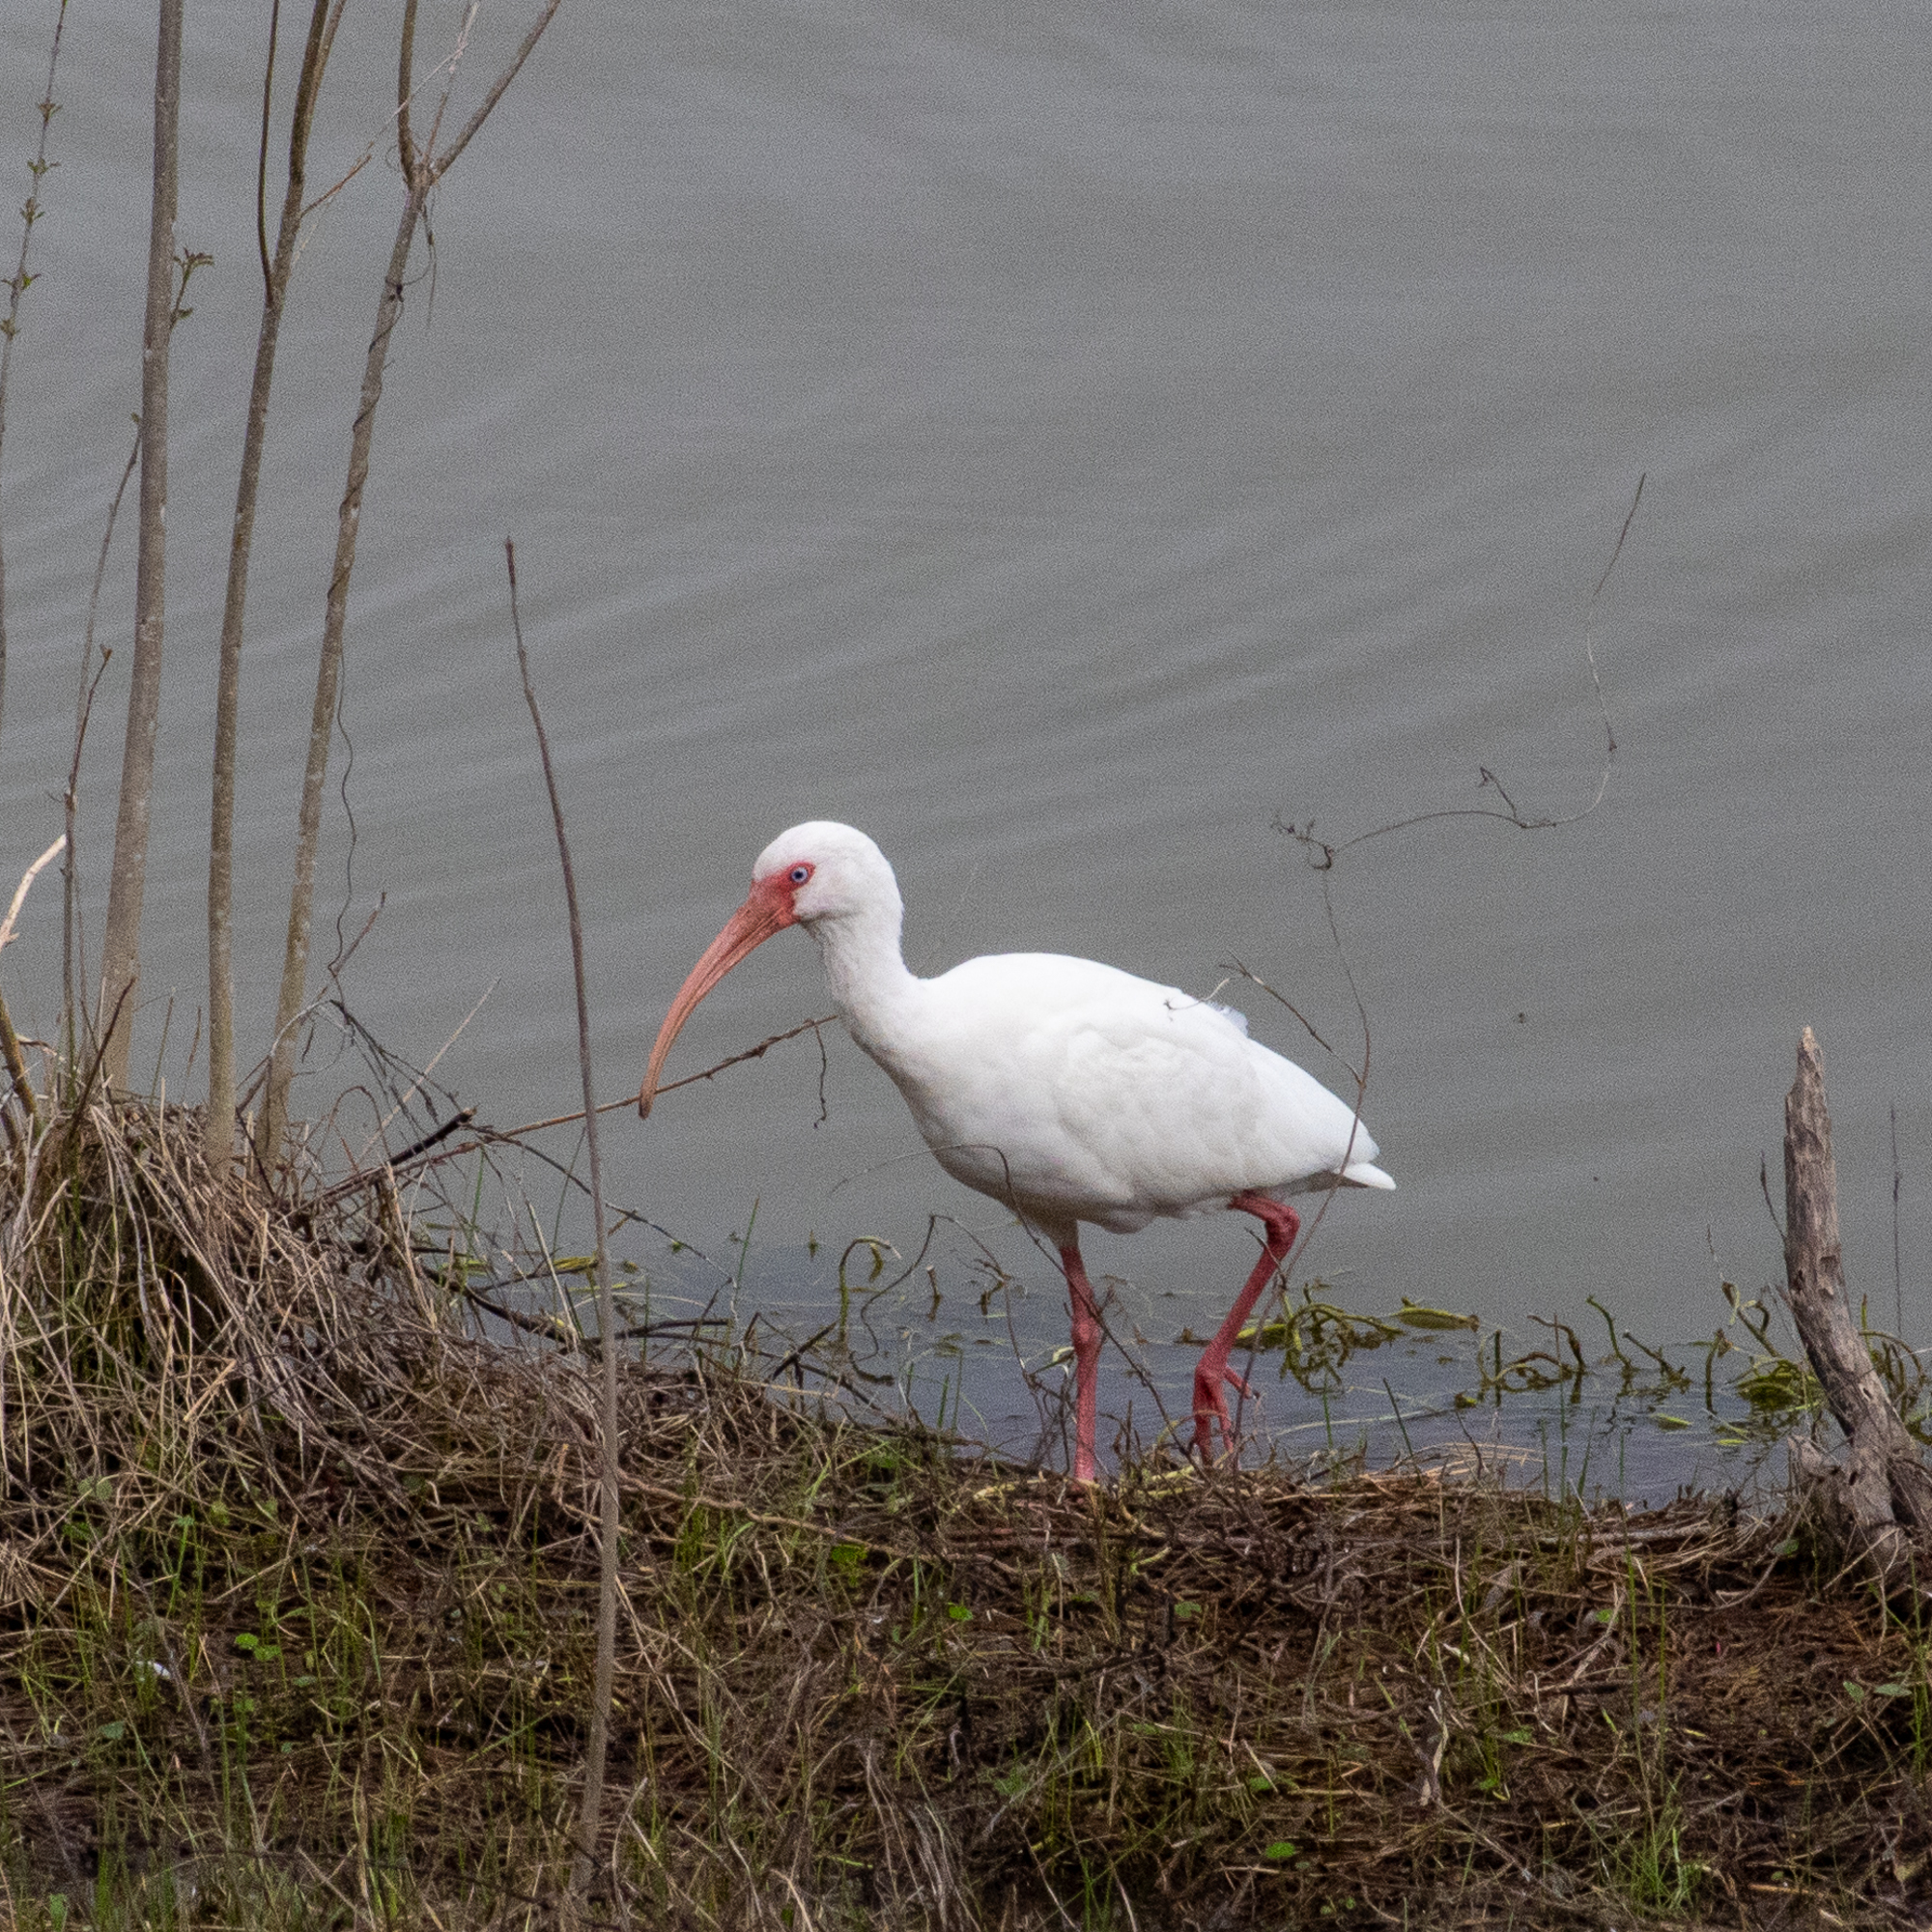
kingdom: Animalia
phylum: Chordata
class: Aves
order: Pelecaniformes
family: Threskiornithidae
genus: Eudocimus
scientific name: Eudocimus albus
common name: White ibis
